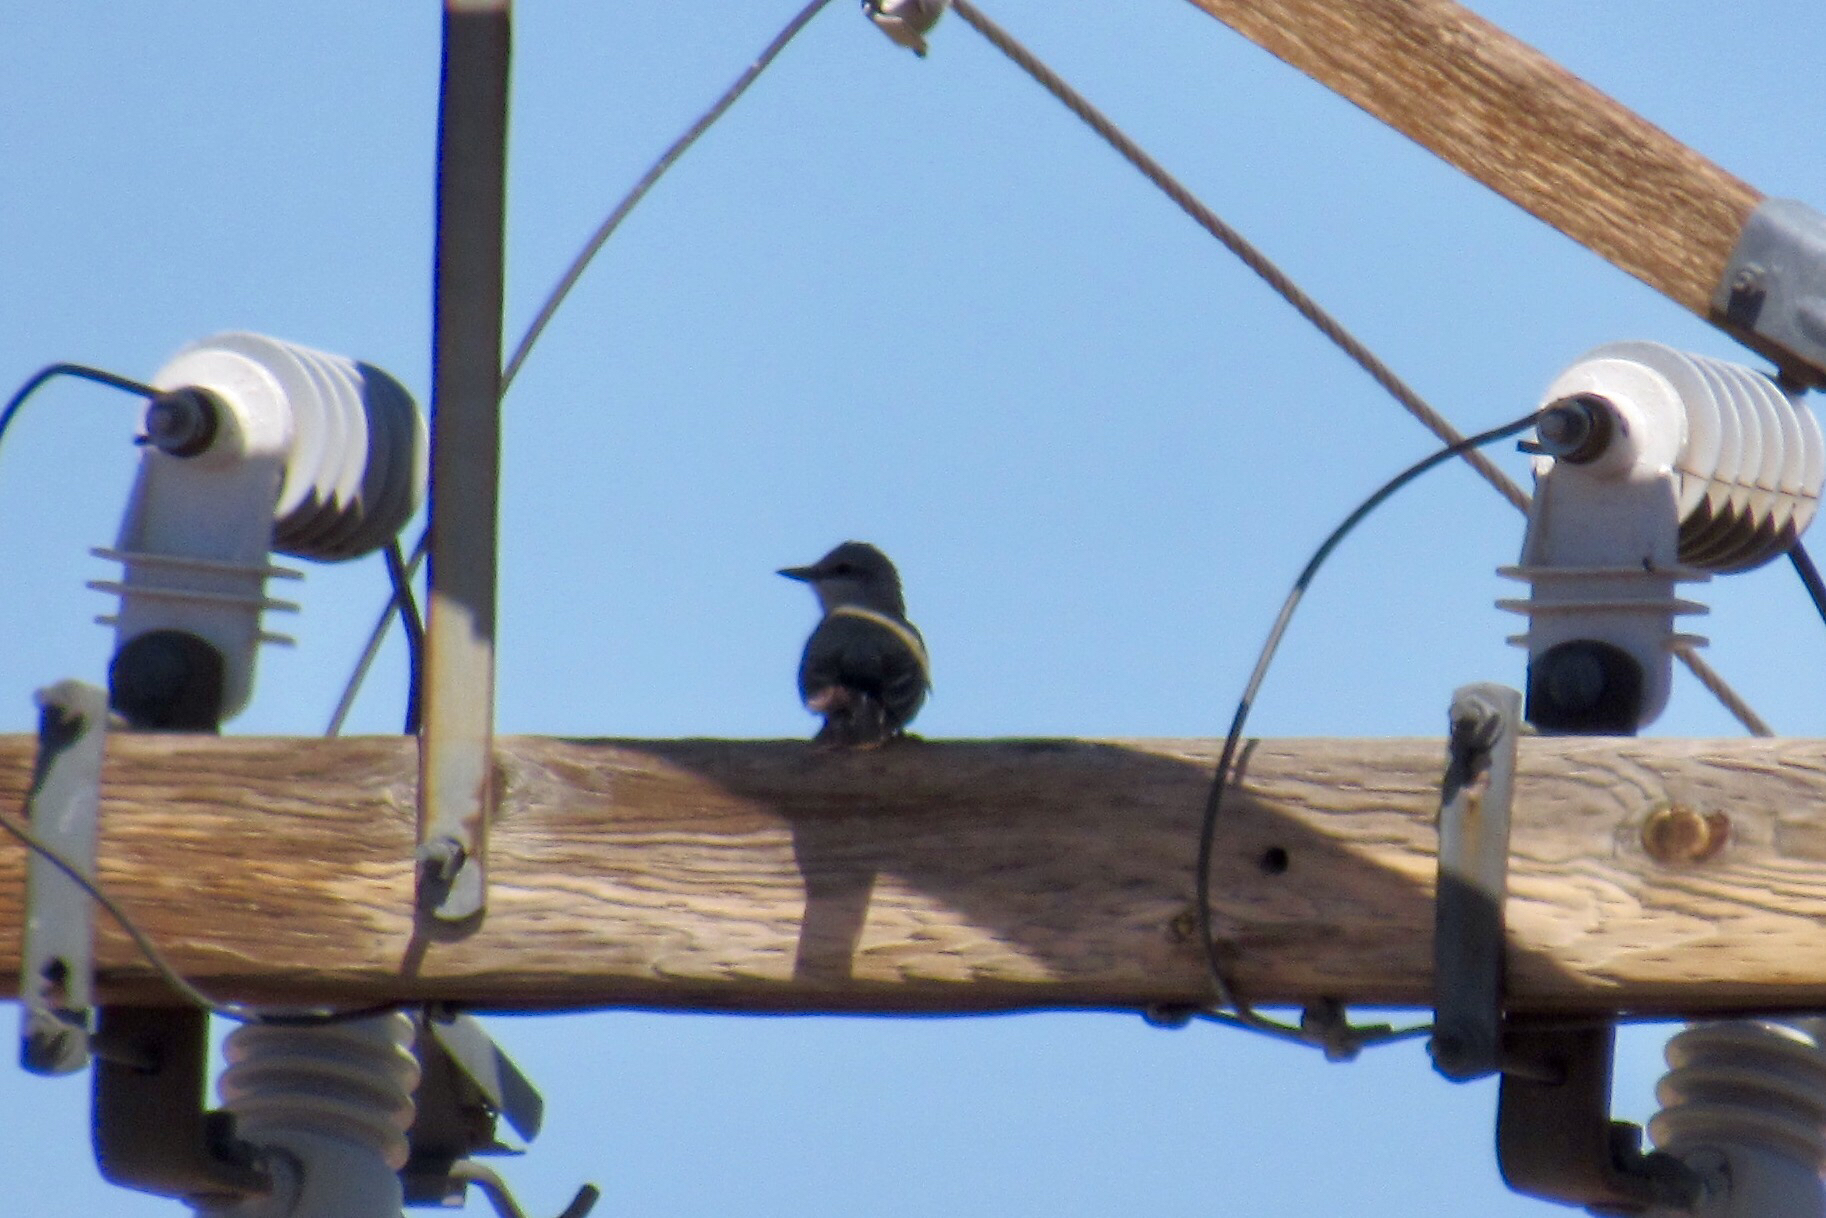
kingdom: Animalia
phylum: Chordata
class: Aves
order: Passeriformes
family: Tyrannidae
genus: Tyrannus
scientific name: Tyrannus verticalis
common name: Western kingbird
